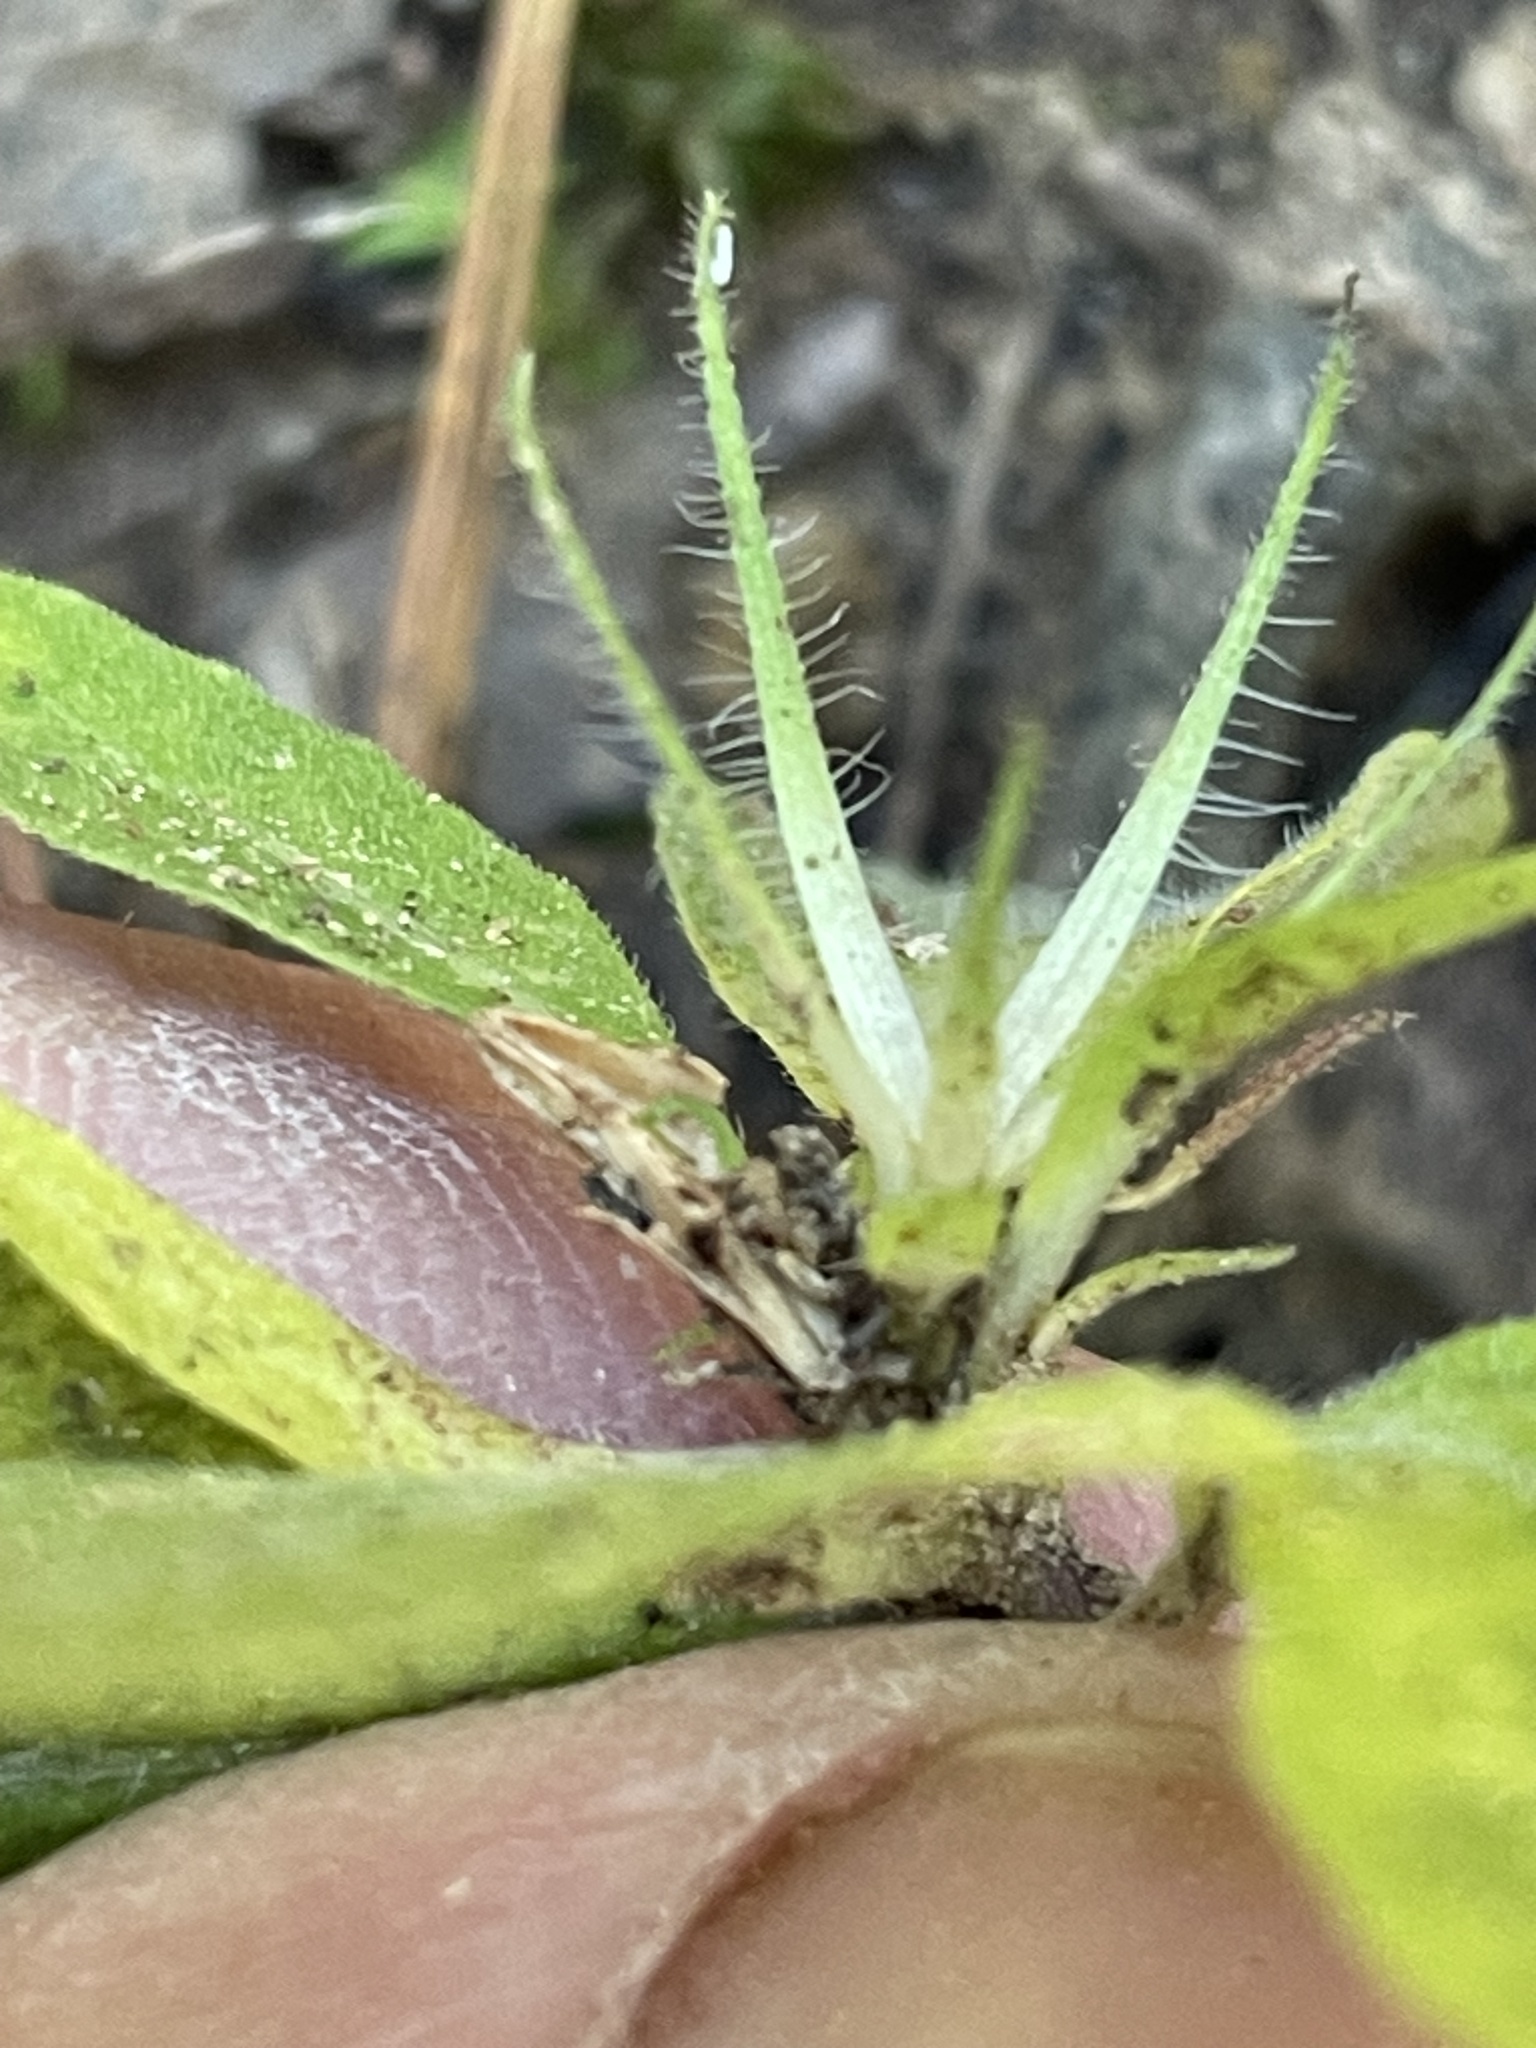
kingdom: Plantae
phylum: Tracheophyta
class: Magnoliopsida
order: Lamiales
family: Acanthaceae
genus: Ruellia
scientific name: Ruellia caroliniensis
